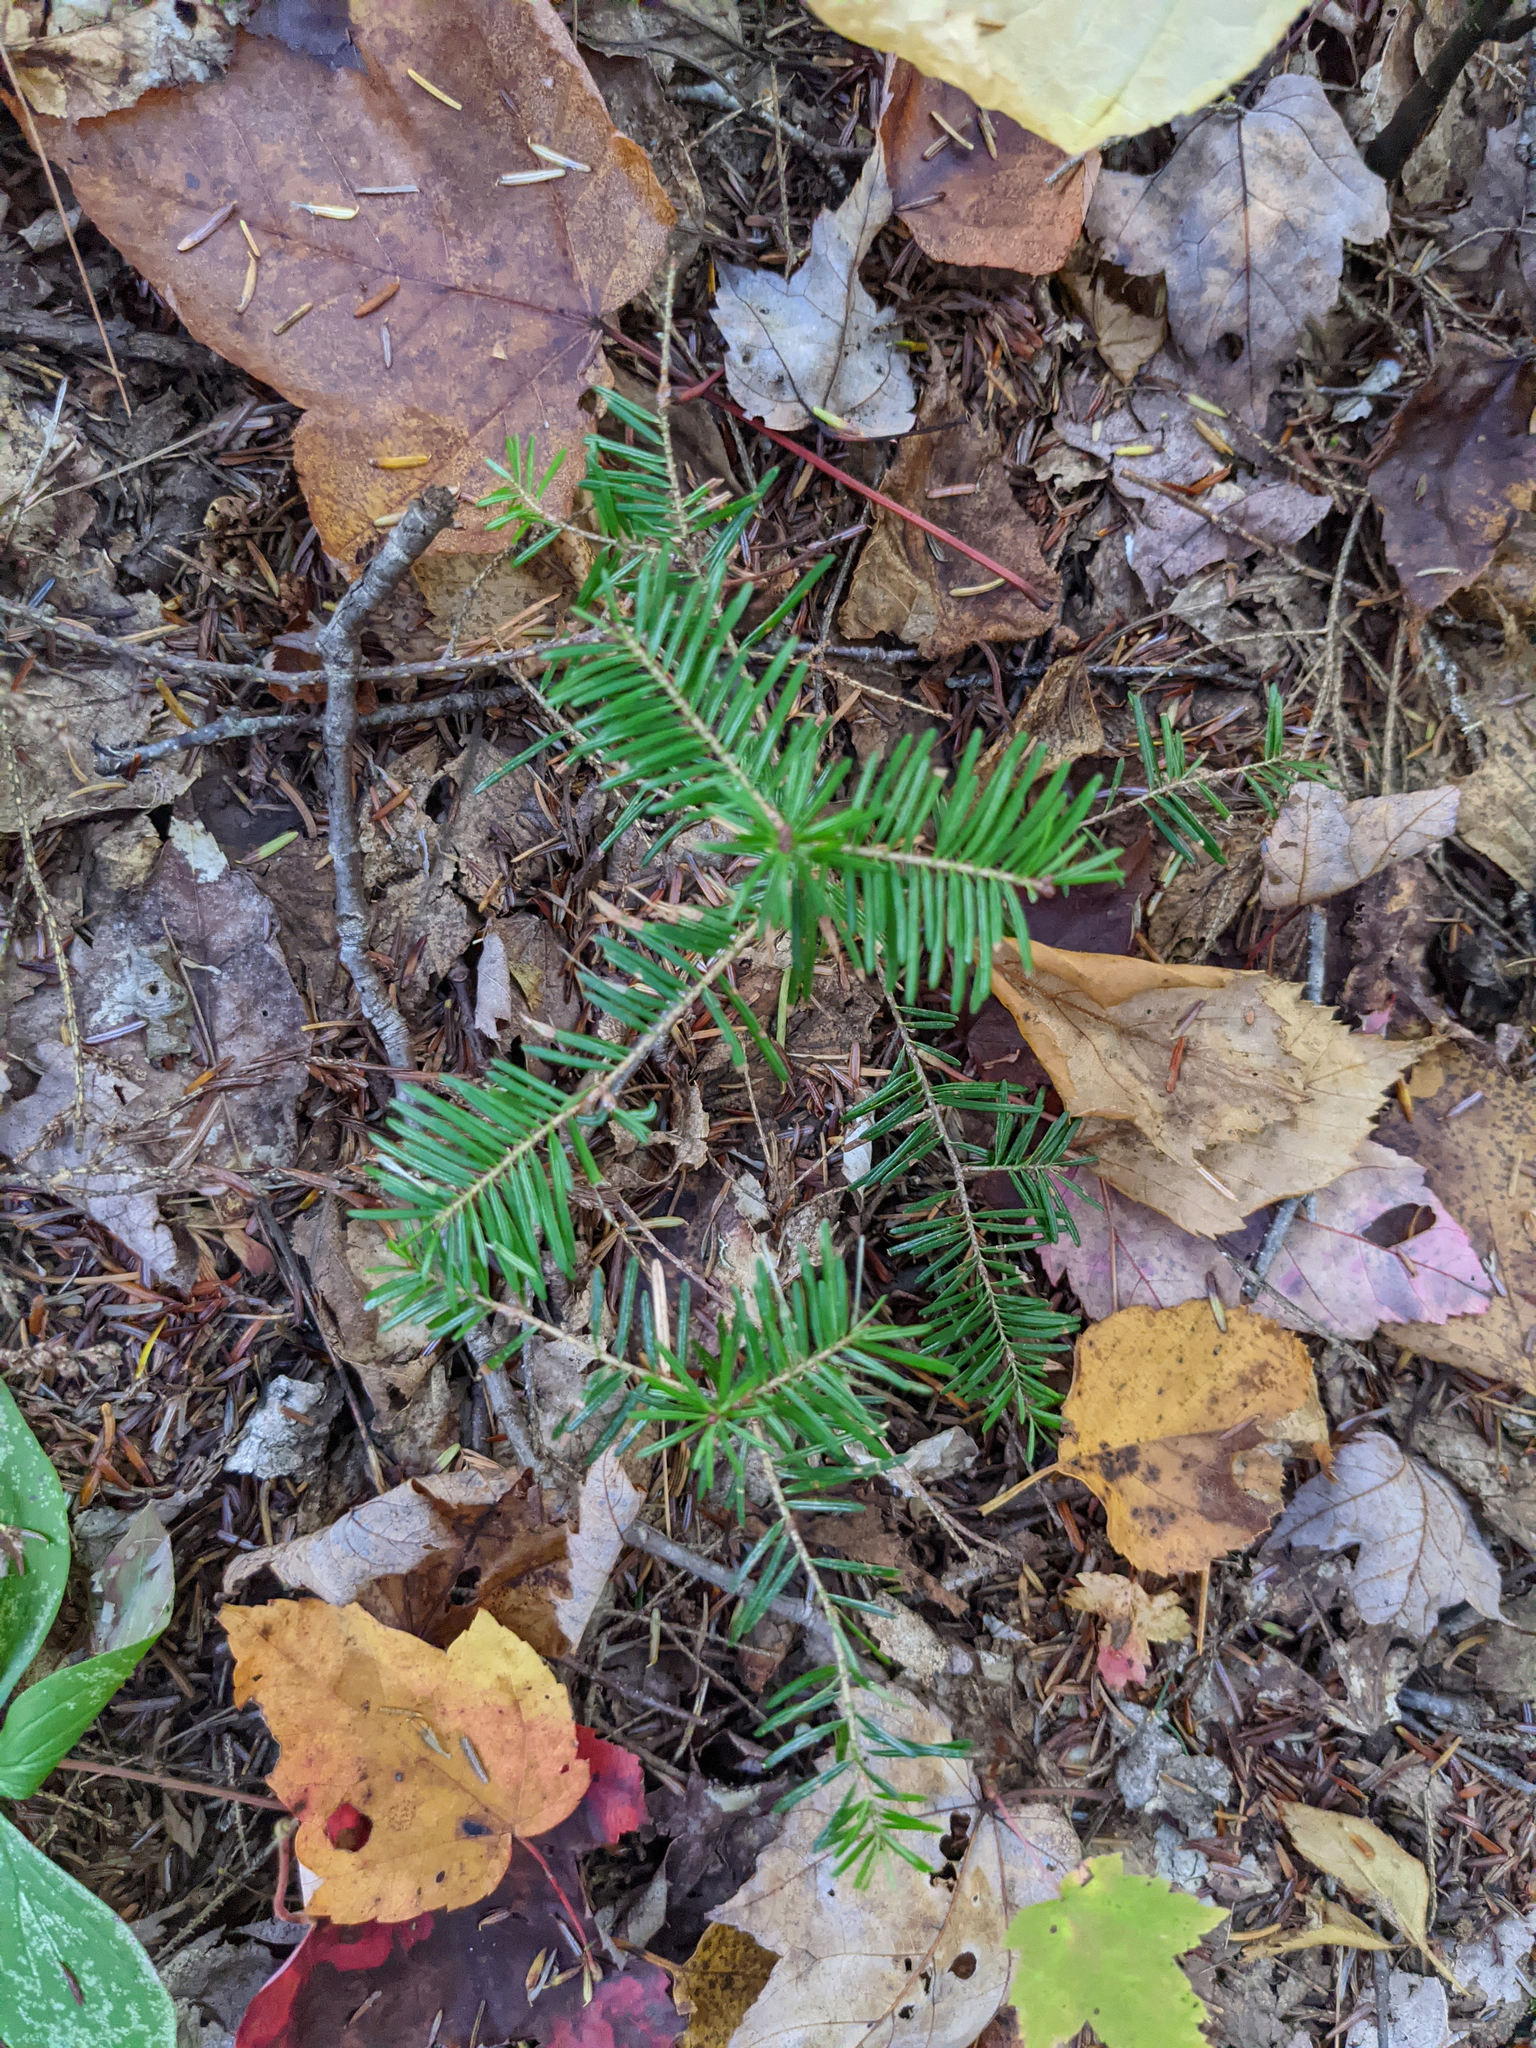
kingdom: Plantae
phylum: Tracheophyta
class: Pinopsida
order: Pinales
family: Pinaceae
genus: Abies
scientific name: Abies balsamea
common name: Balsam fir
